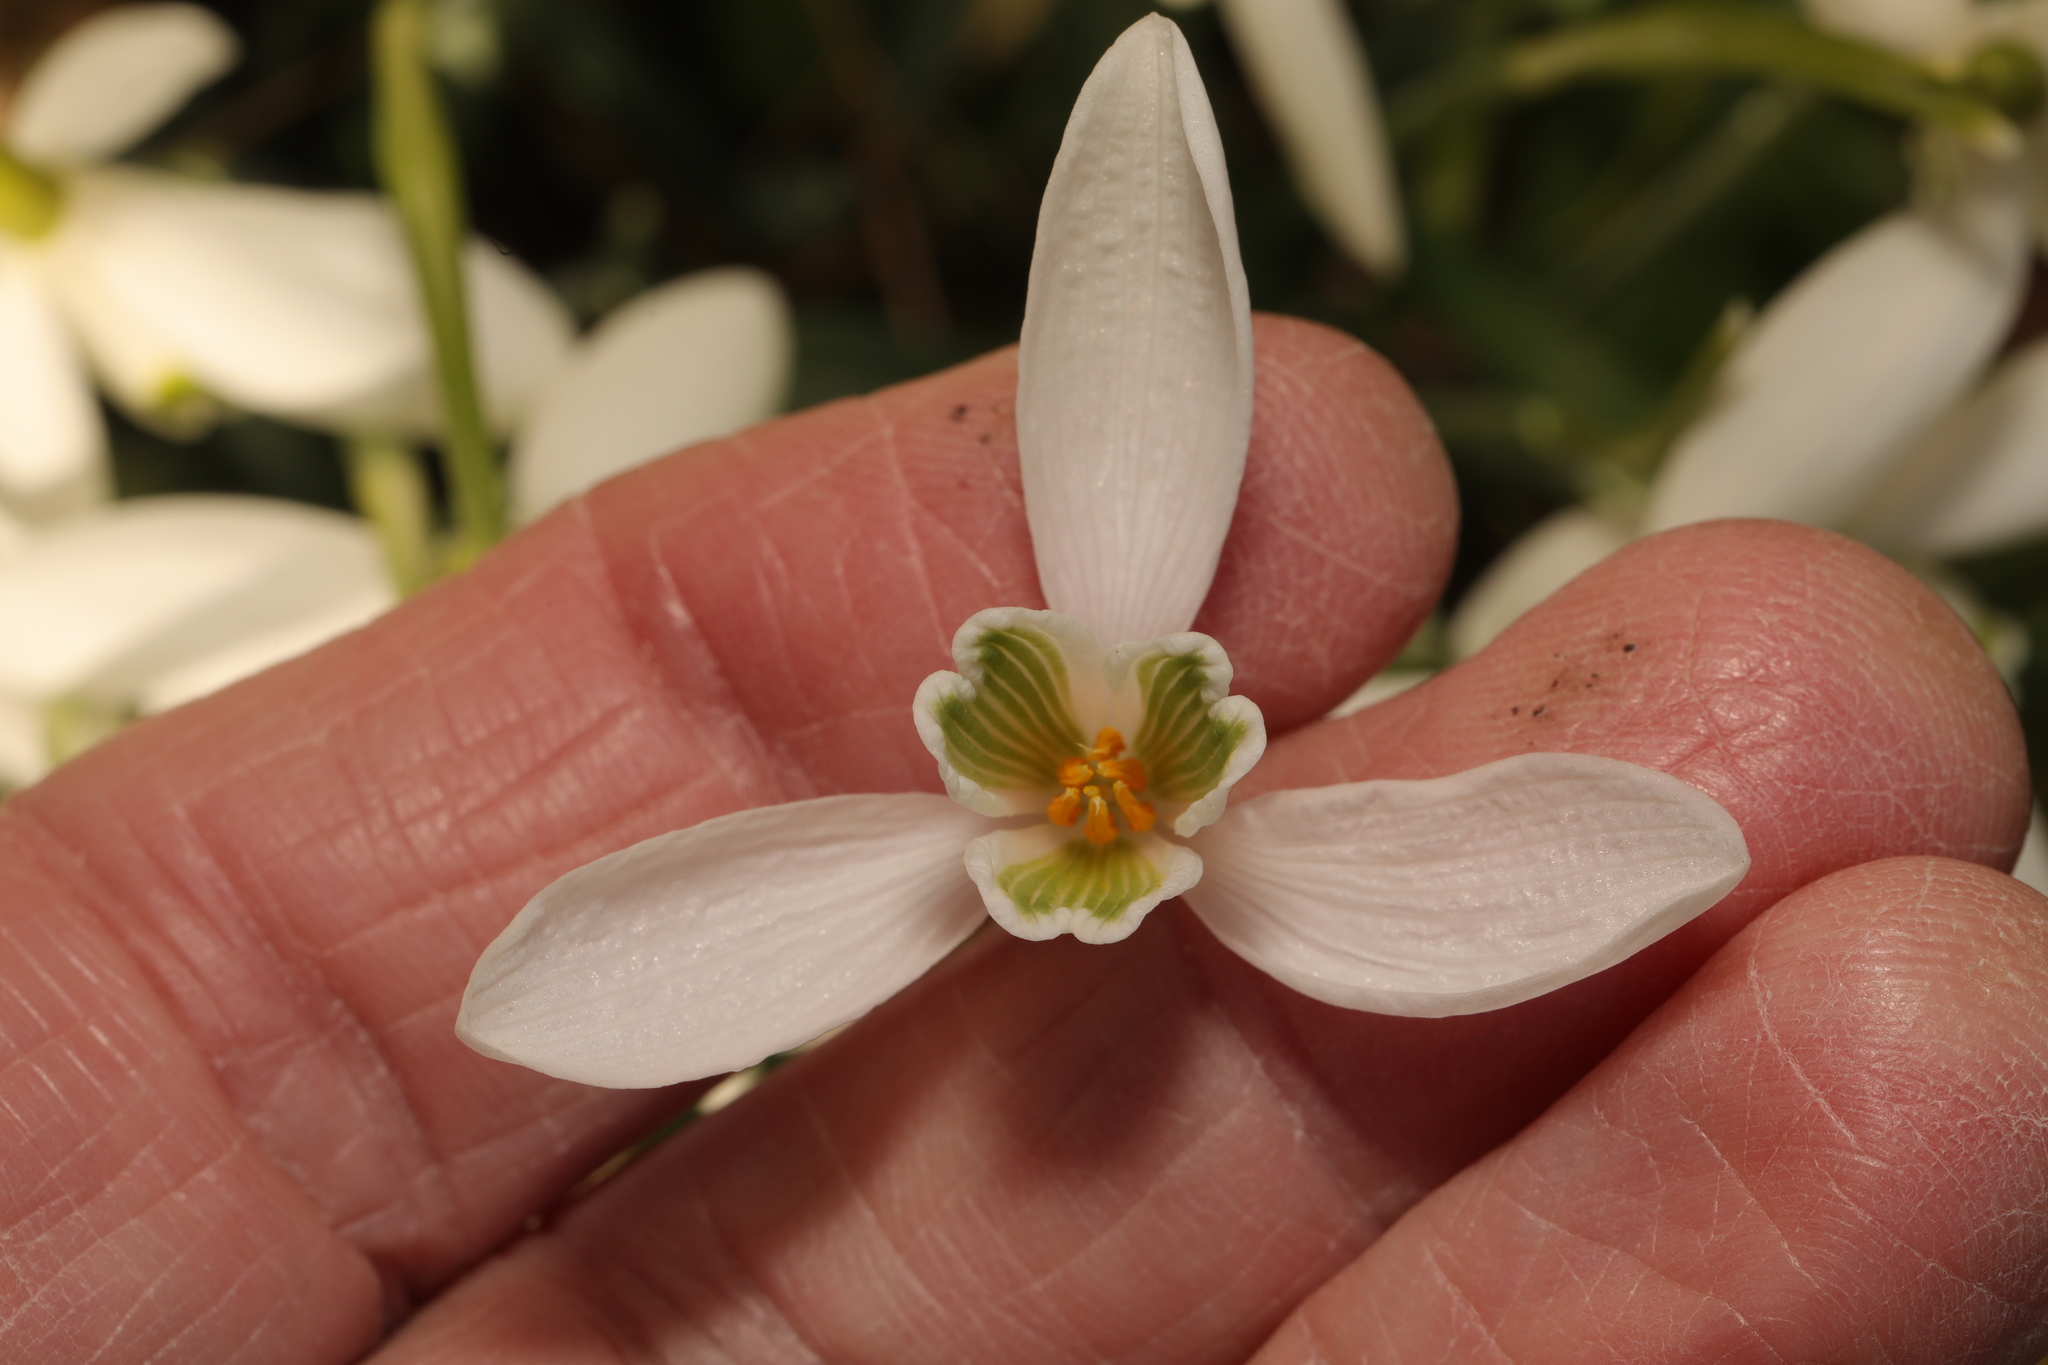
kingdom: Plantae
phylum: Tracheophyta
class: Liliopsida
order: Asparagales
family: Amaryllidaceae
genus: Galanthus
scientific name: Galanthus nivalis
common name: Snowdrop
